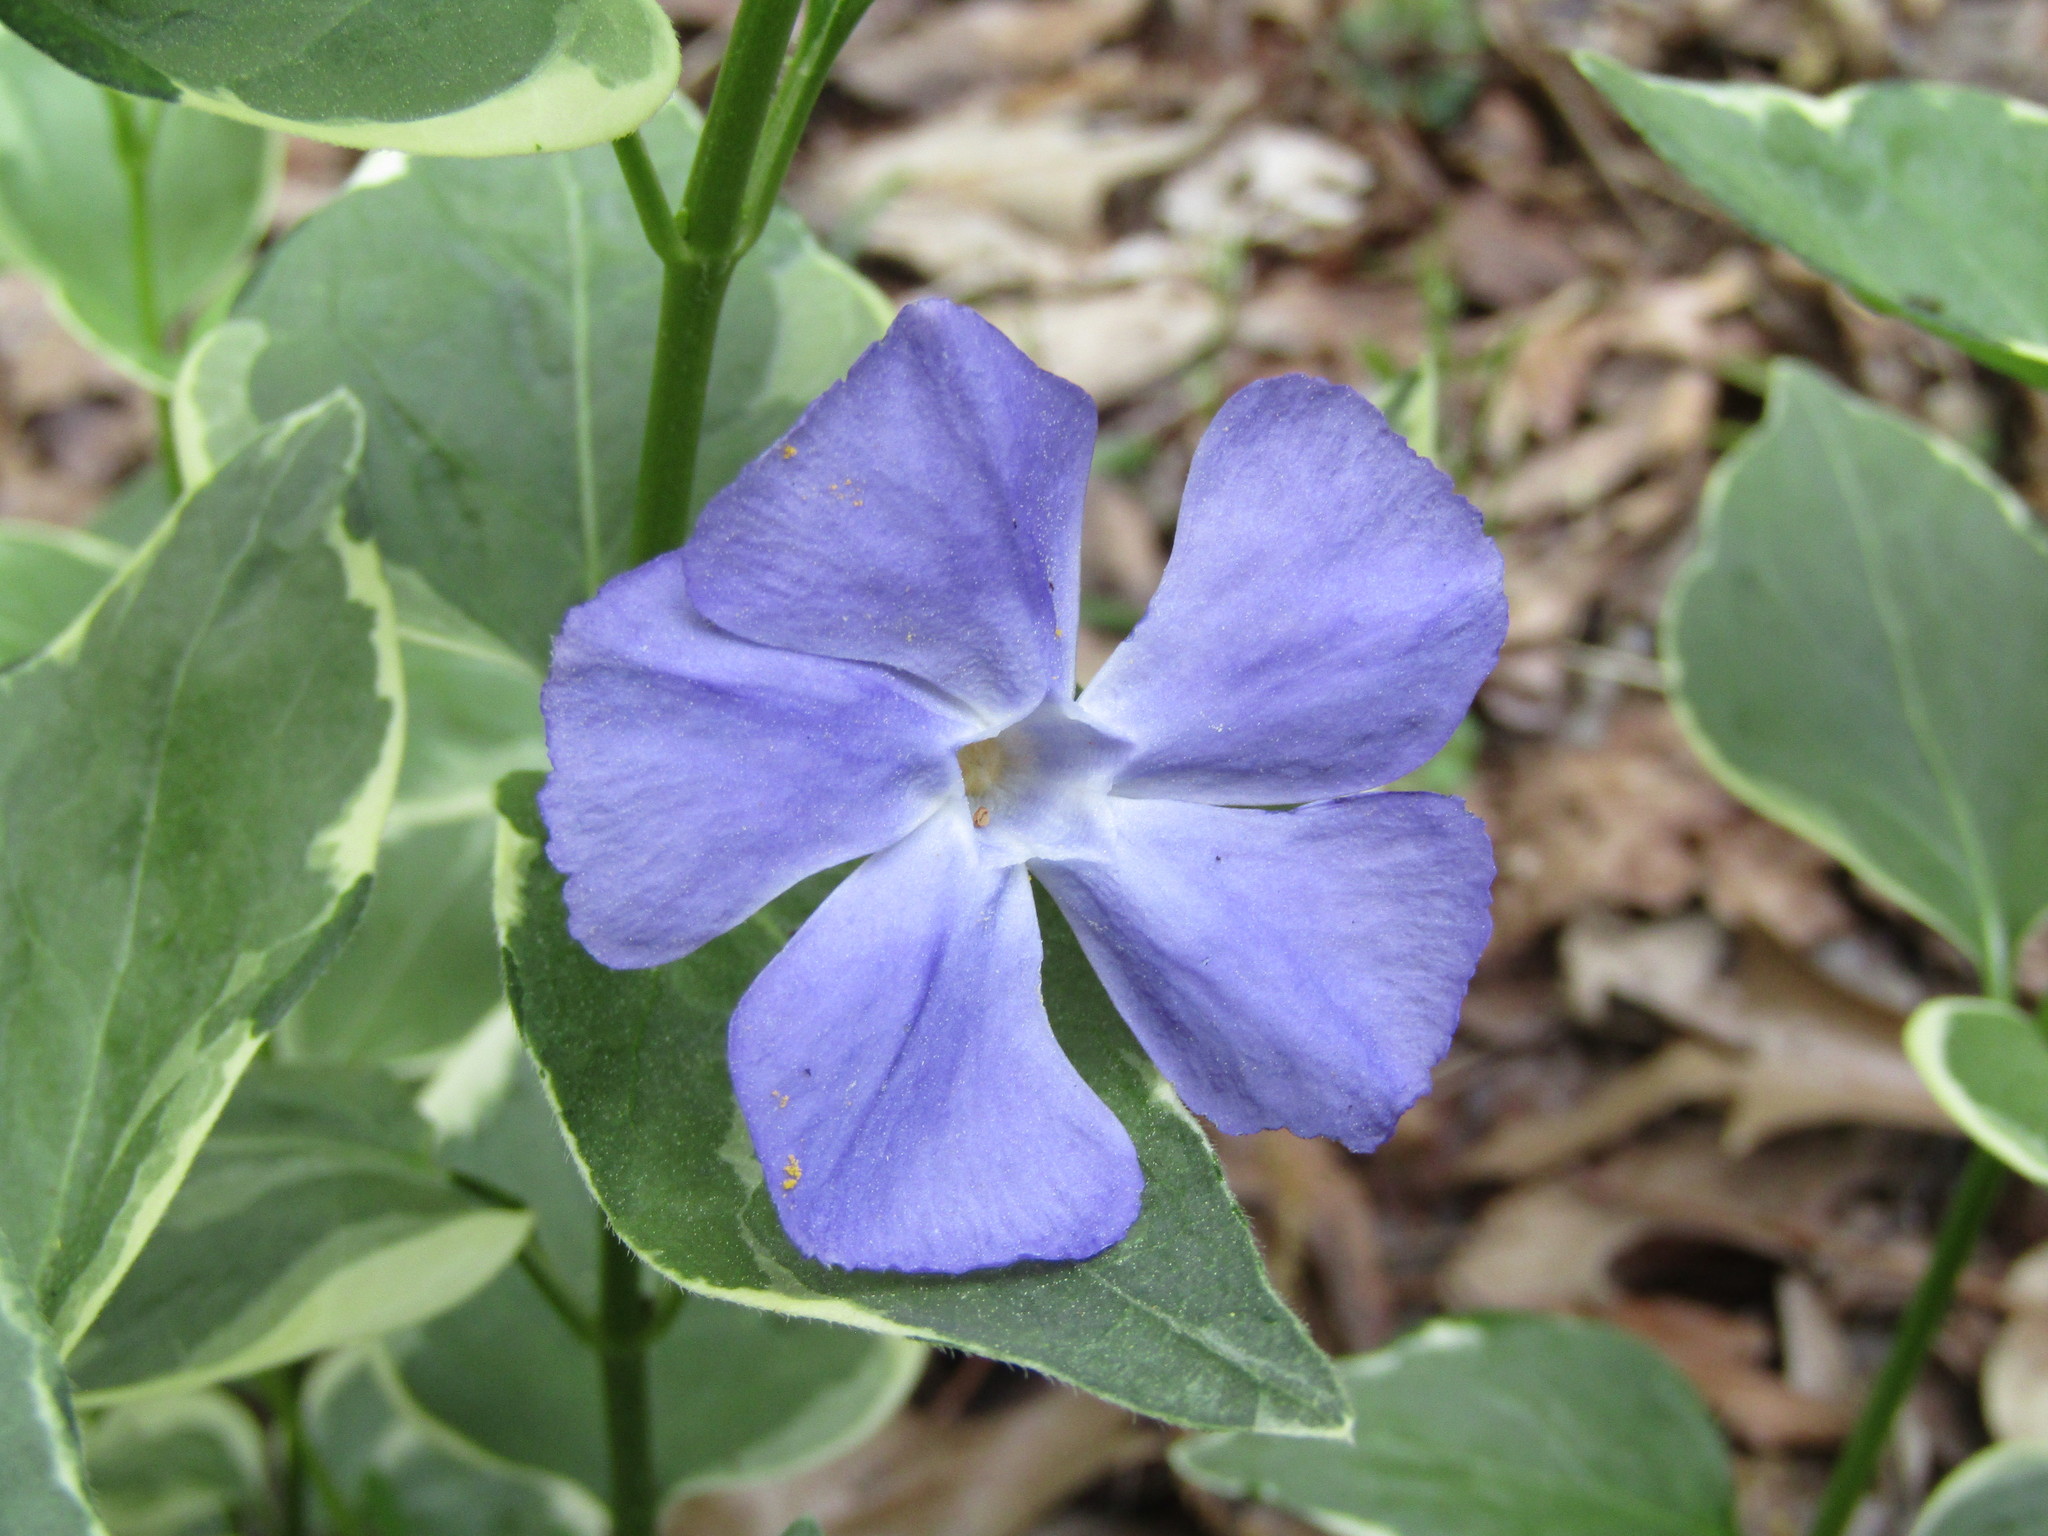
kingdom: Plantae
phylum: Tracheophyta
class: Magnoliopsida
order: Gentianales
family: Apocynaceae
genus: Vinca
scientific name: Vinca major
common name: Greater periwinkle
